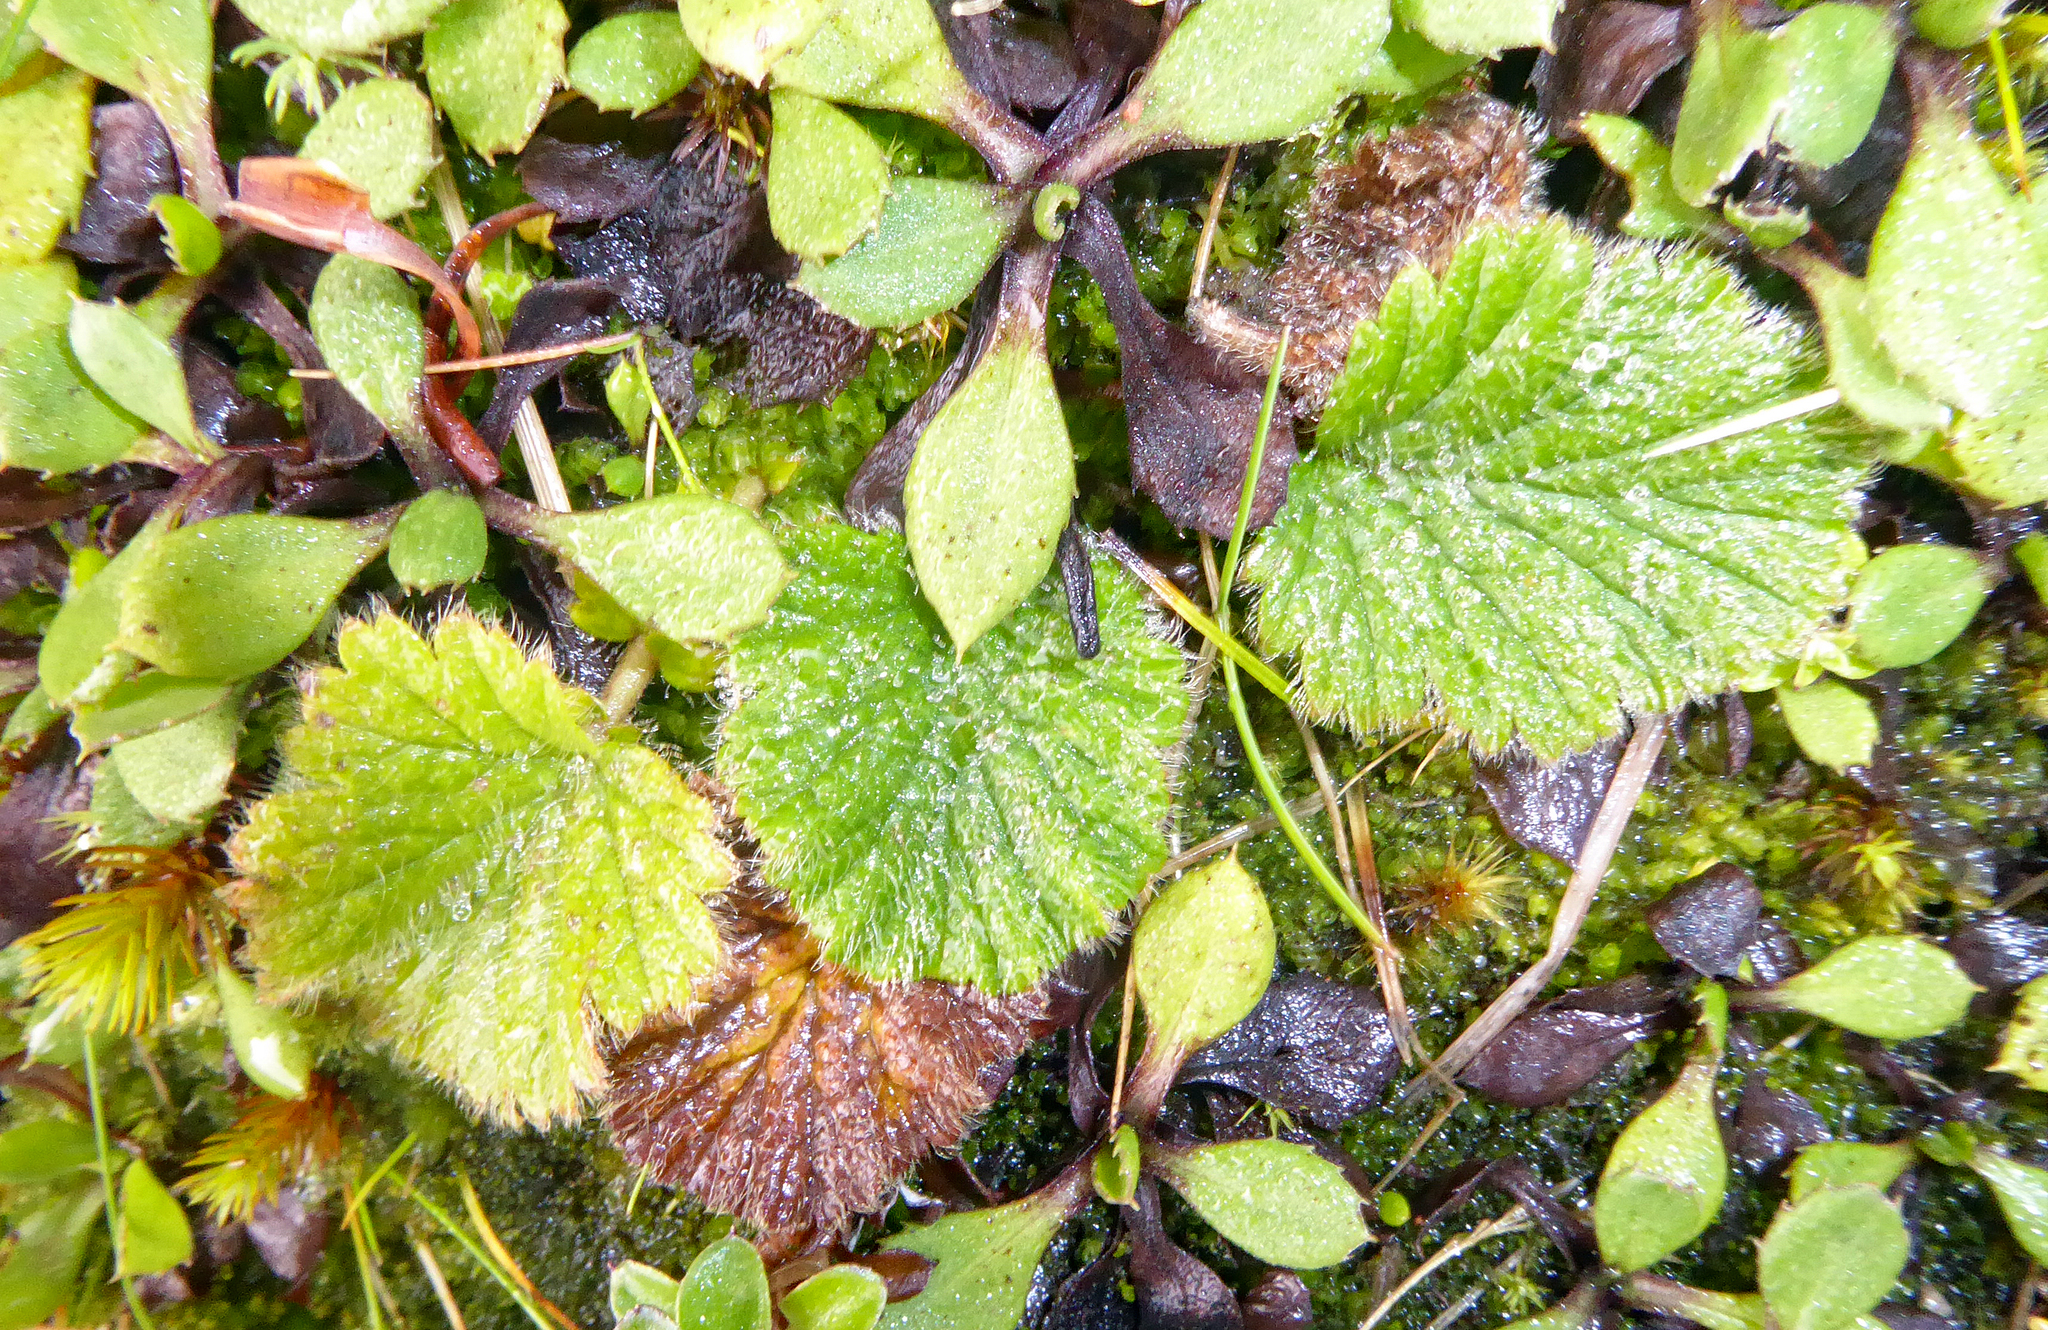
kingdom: Plantae
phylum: Tracheophyta
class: Magnoliopsida
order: Rosales
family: Rosaceae
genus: Geum
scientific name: Geum cockaynei
